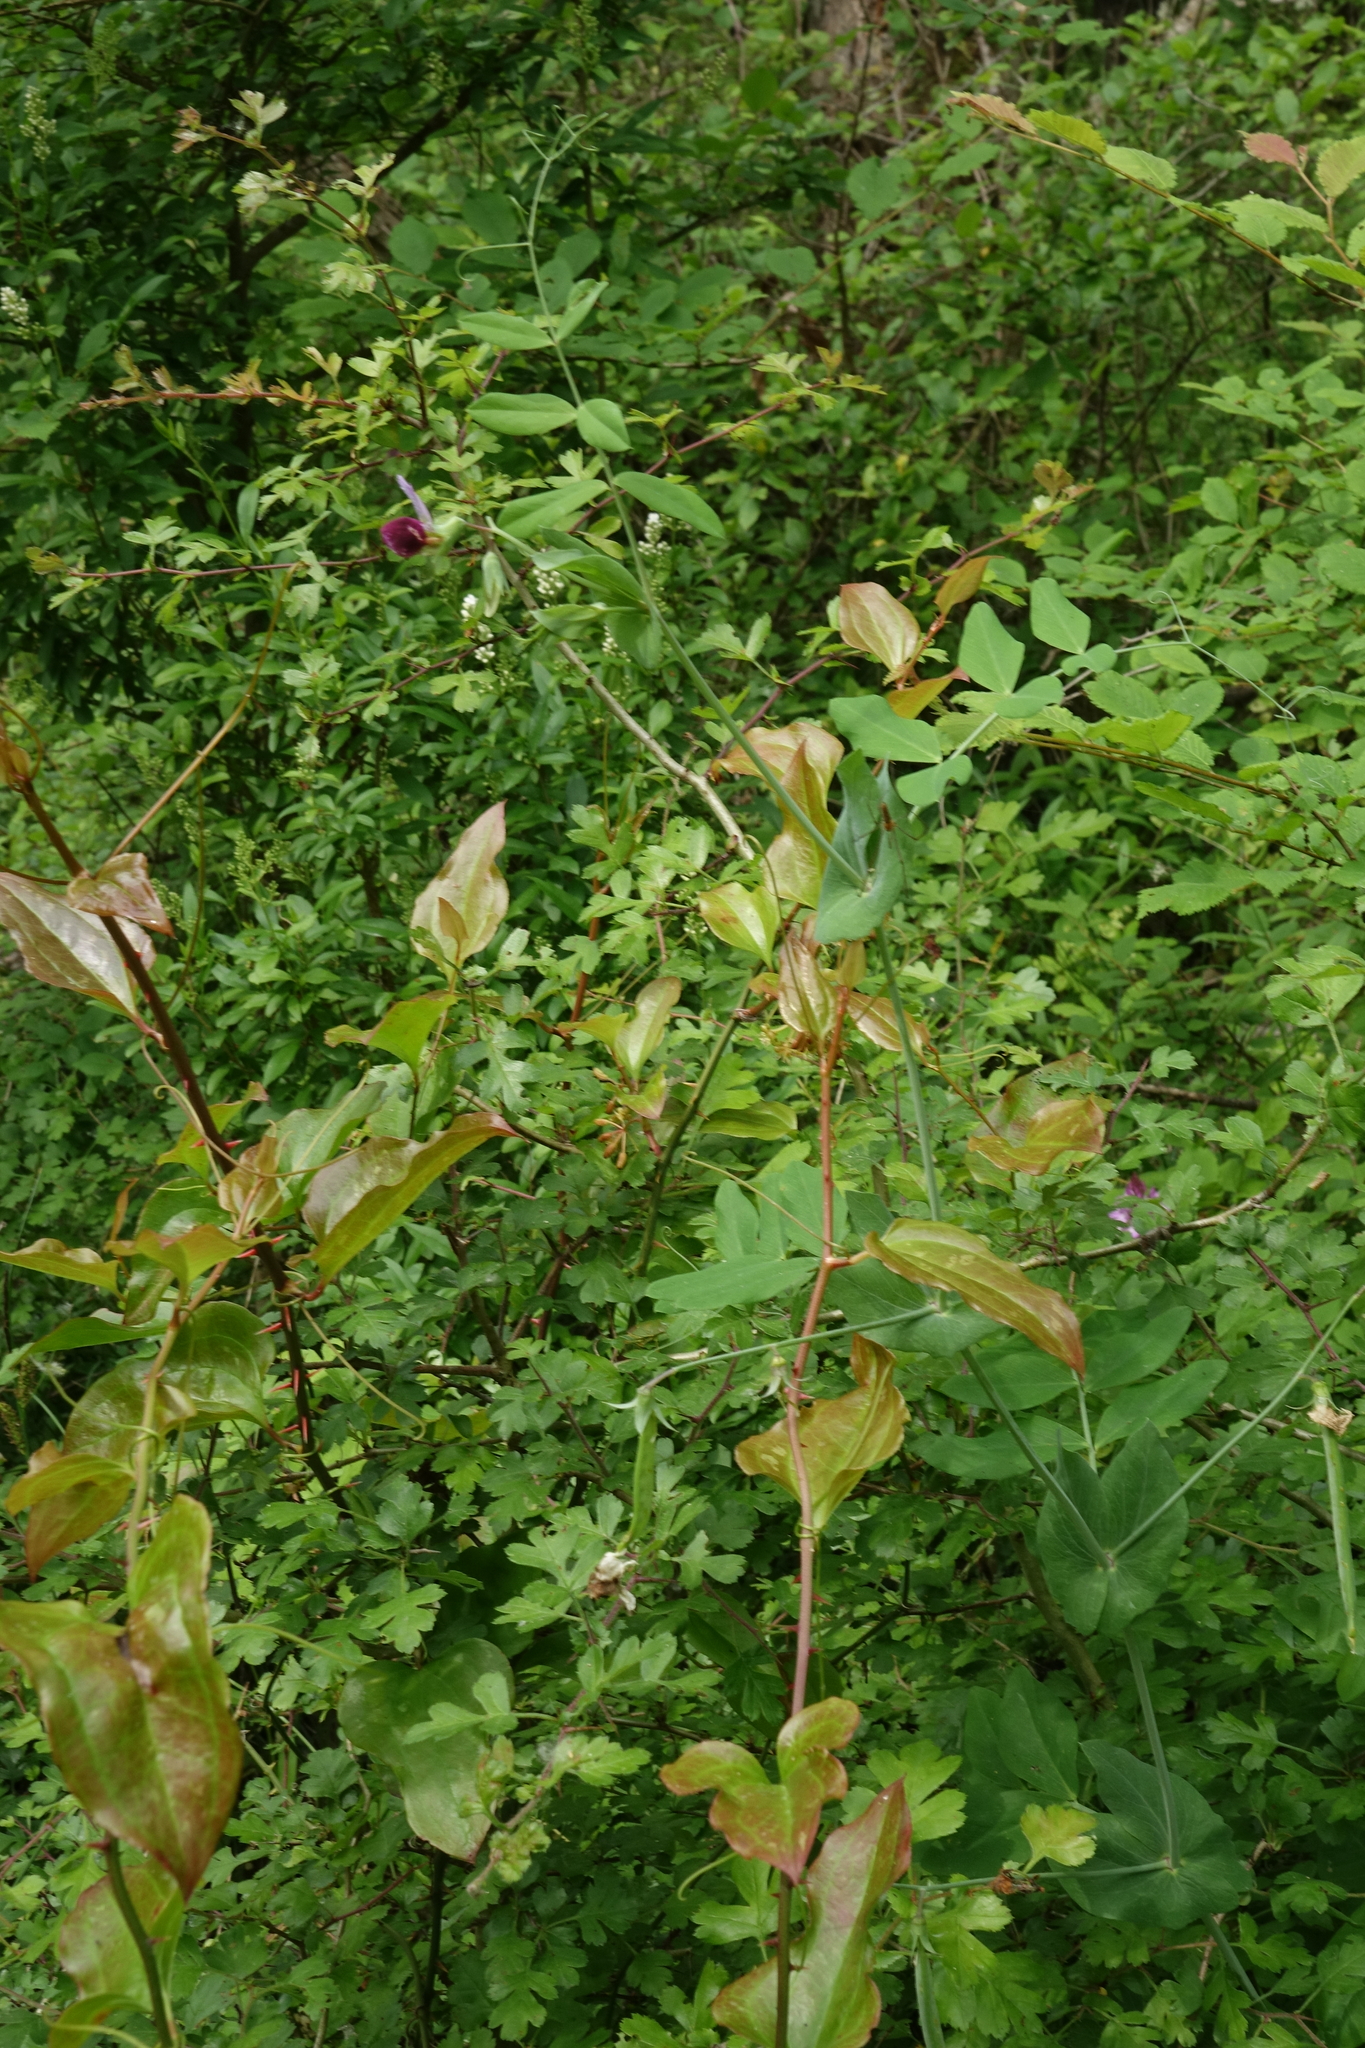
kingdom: Plantae
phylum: Tracheophyta
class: Liliopsida
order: Liliales
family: Smilacaceae
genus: Smilax
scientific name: Smilax excelsa
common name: Larger smilax
